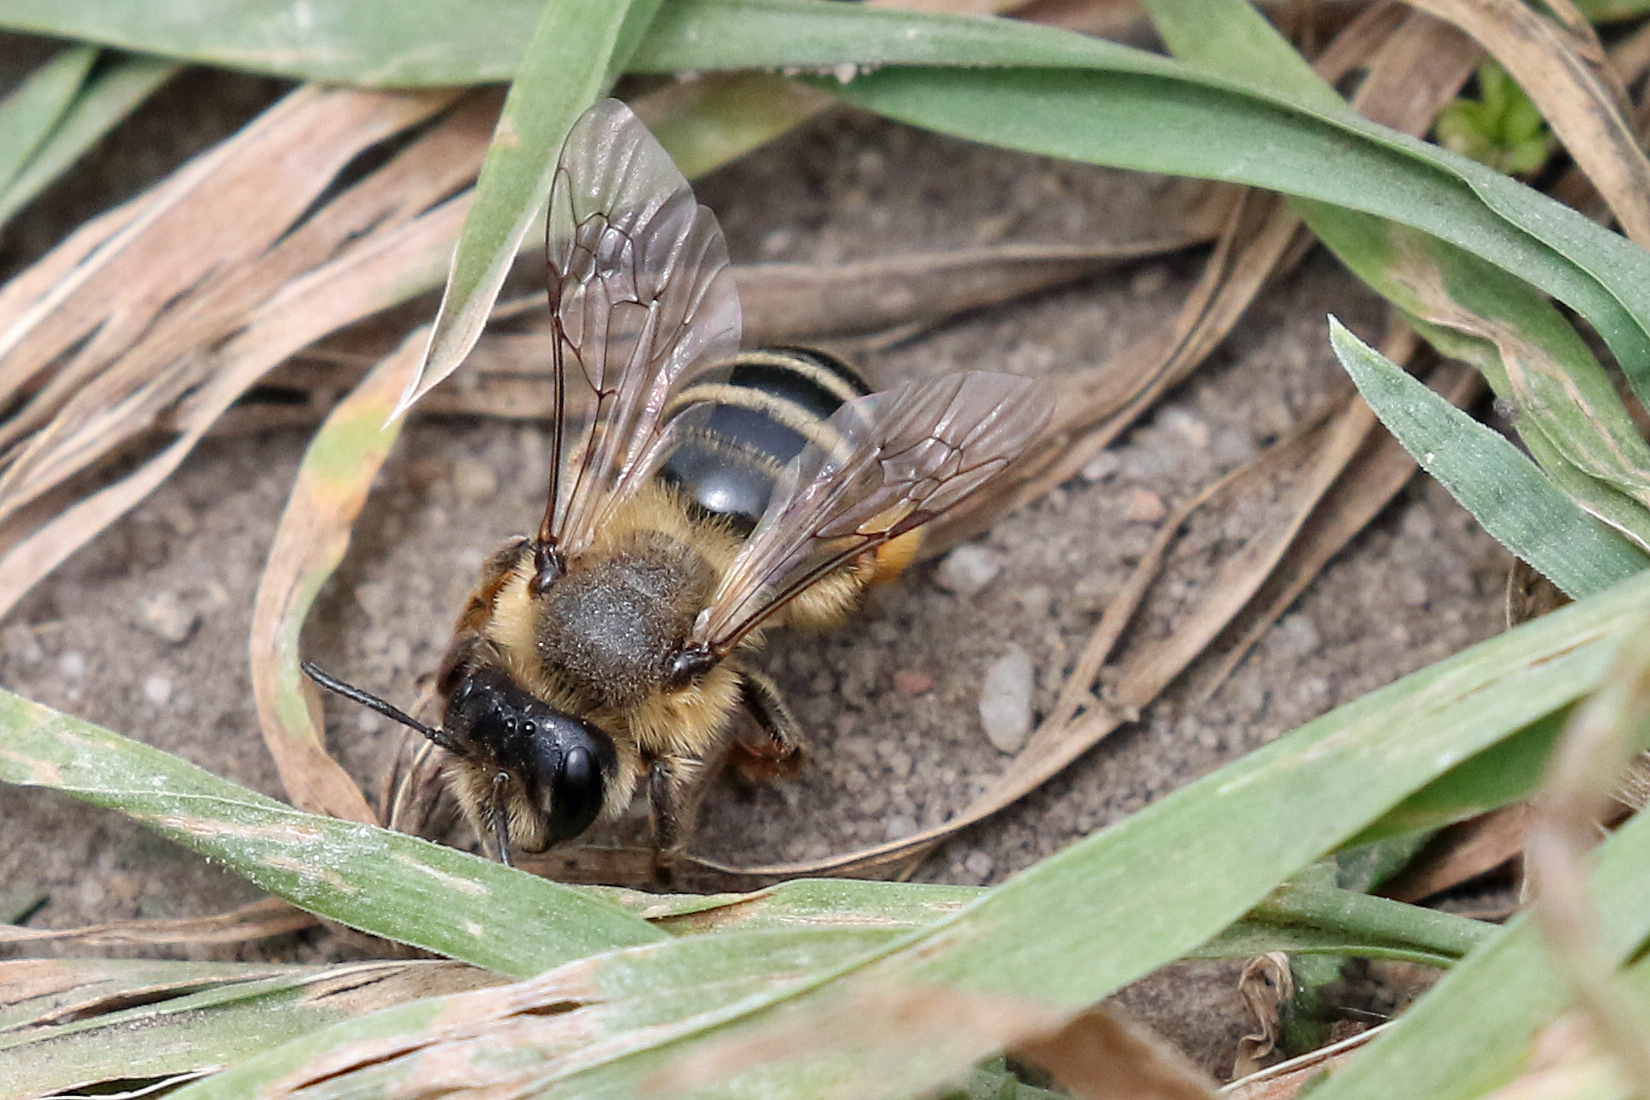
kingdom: Animalia
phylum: Arthropoda
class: Insecta
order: Hymenoptera
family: Andrenidae
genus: Andrena
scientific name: Andrena flavipes
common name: Yellow-legged mining bee
